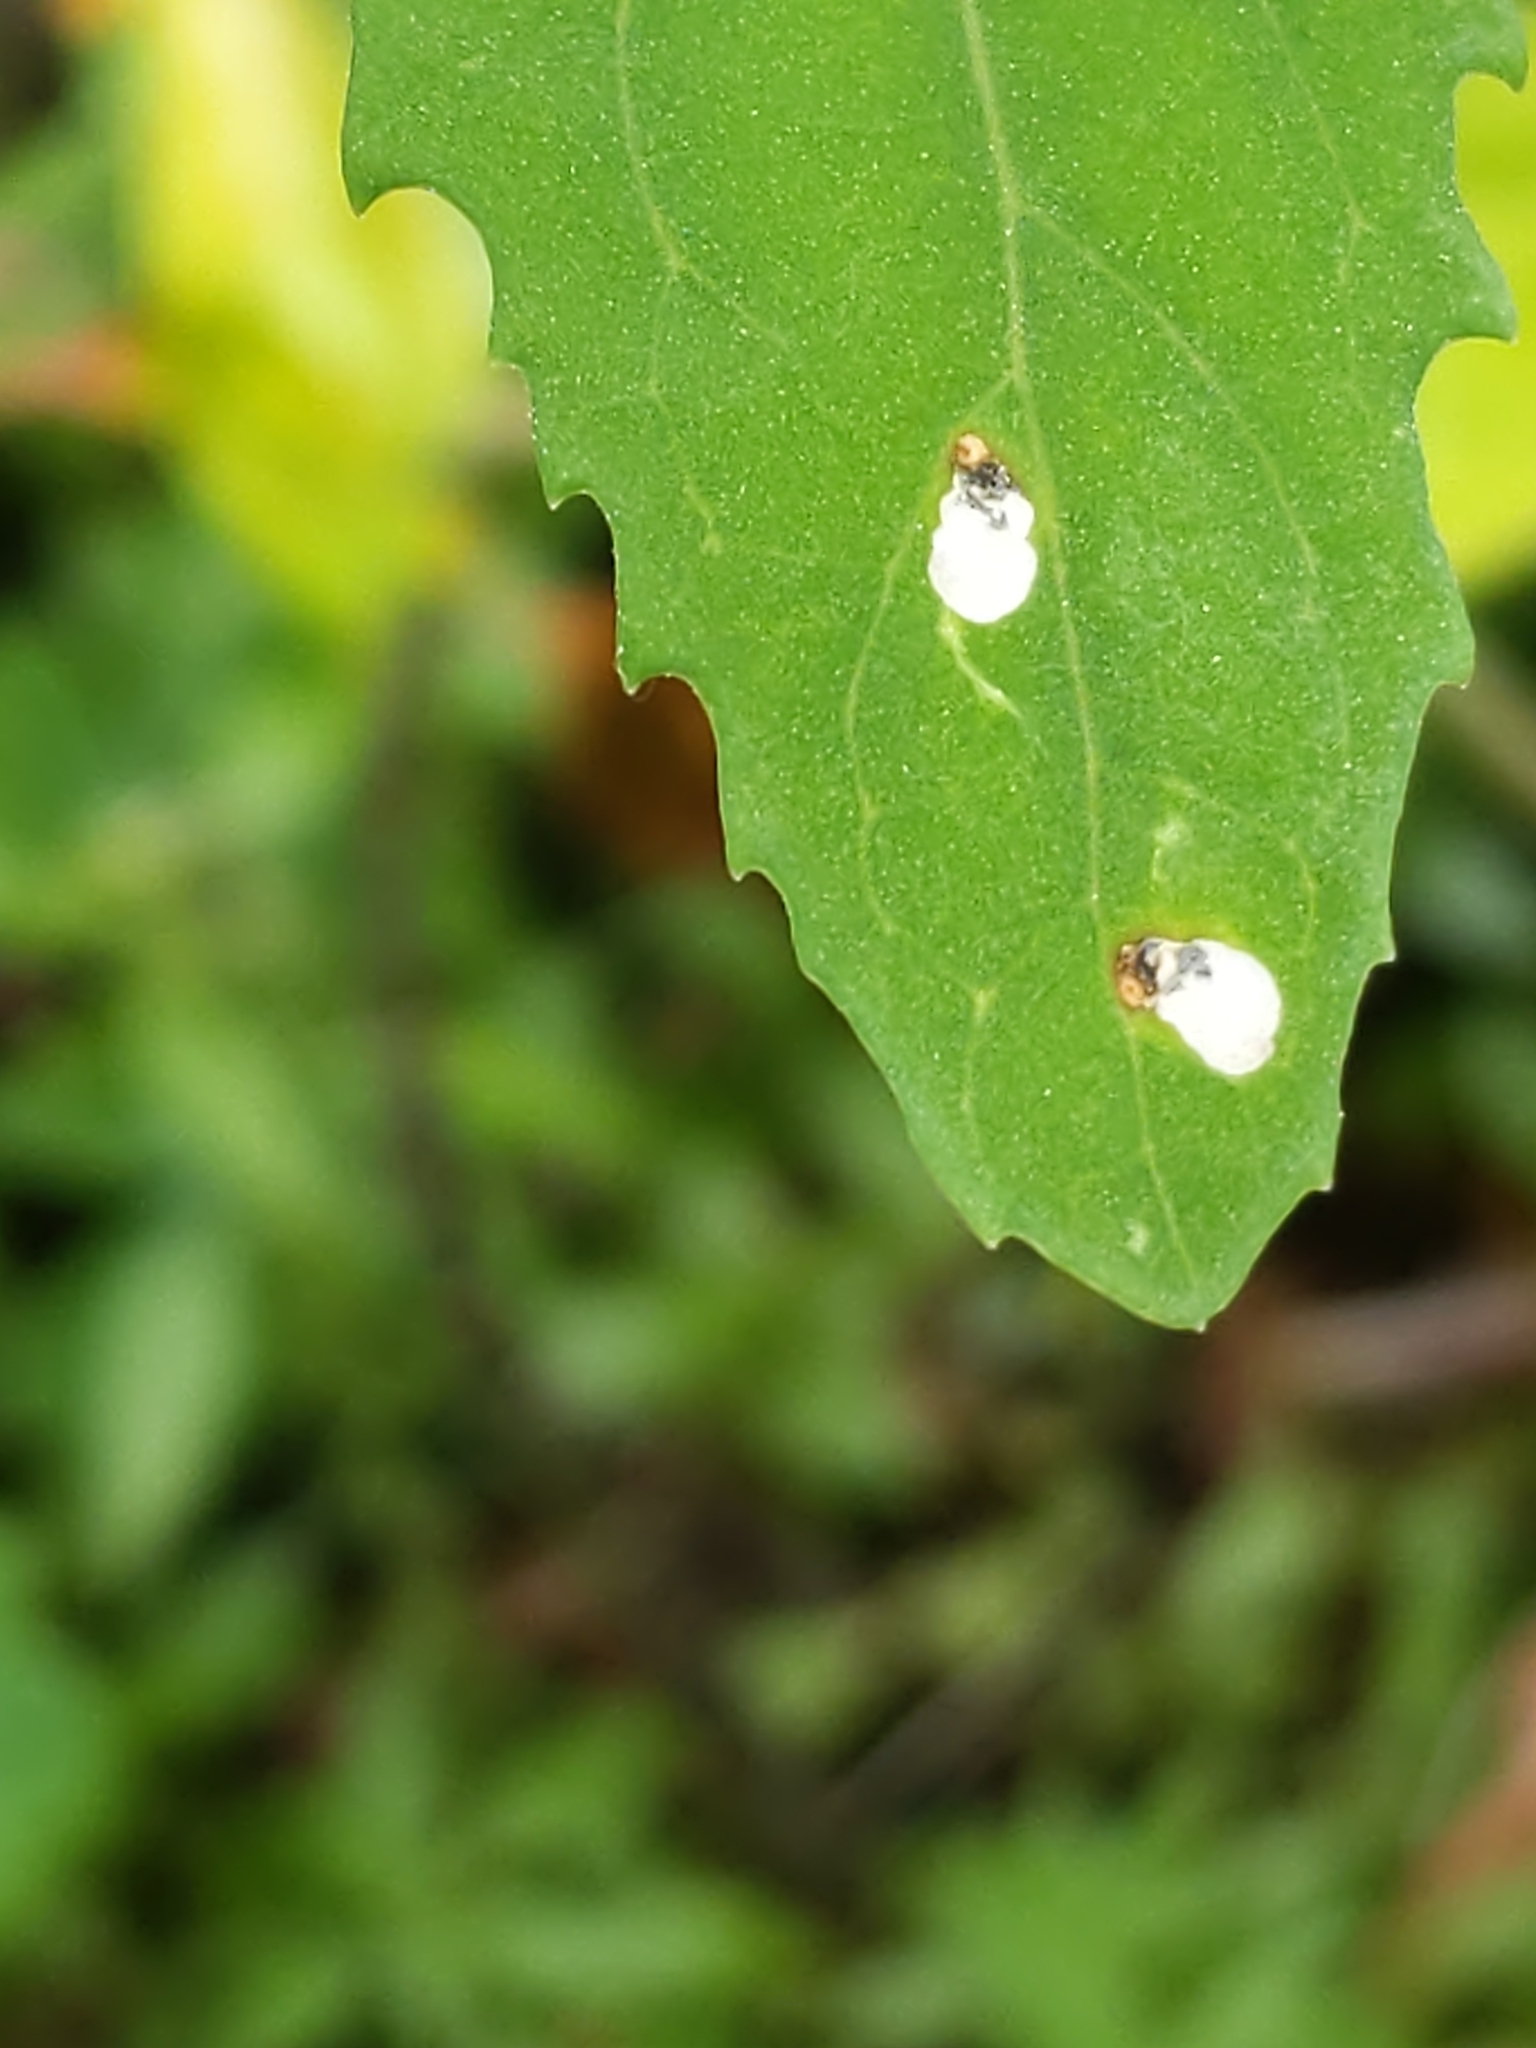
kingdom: Animalia
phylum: Arthropoda
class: Insecta
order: Lepidoptera
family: Gelechiidae
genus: Chrysoesthia
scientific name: Chrysoesthia sexguttella
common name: Moth
